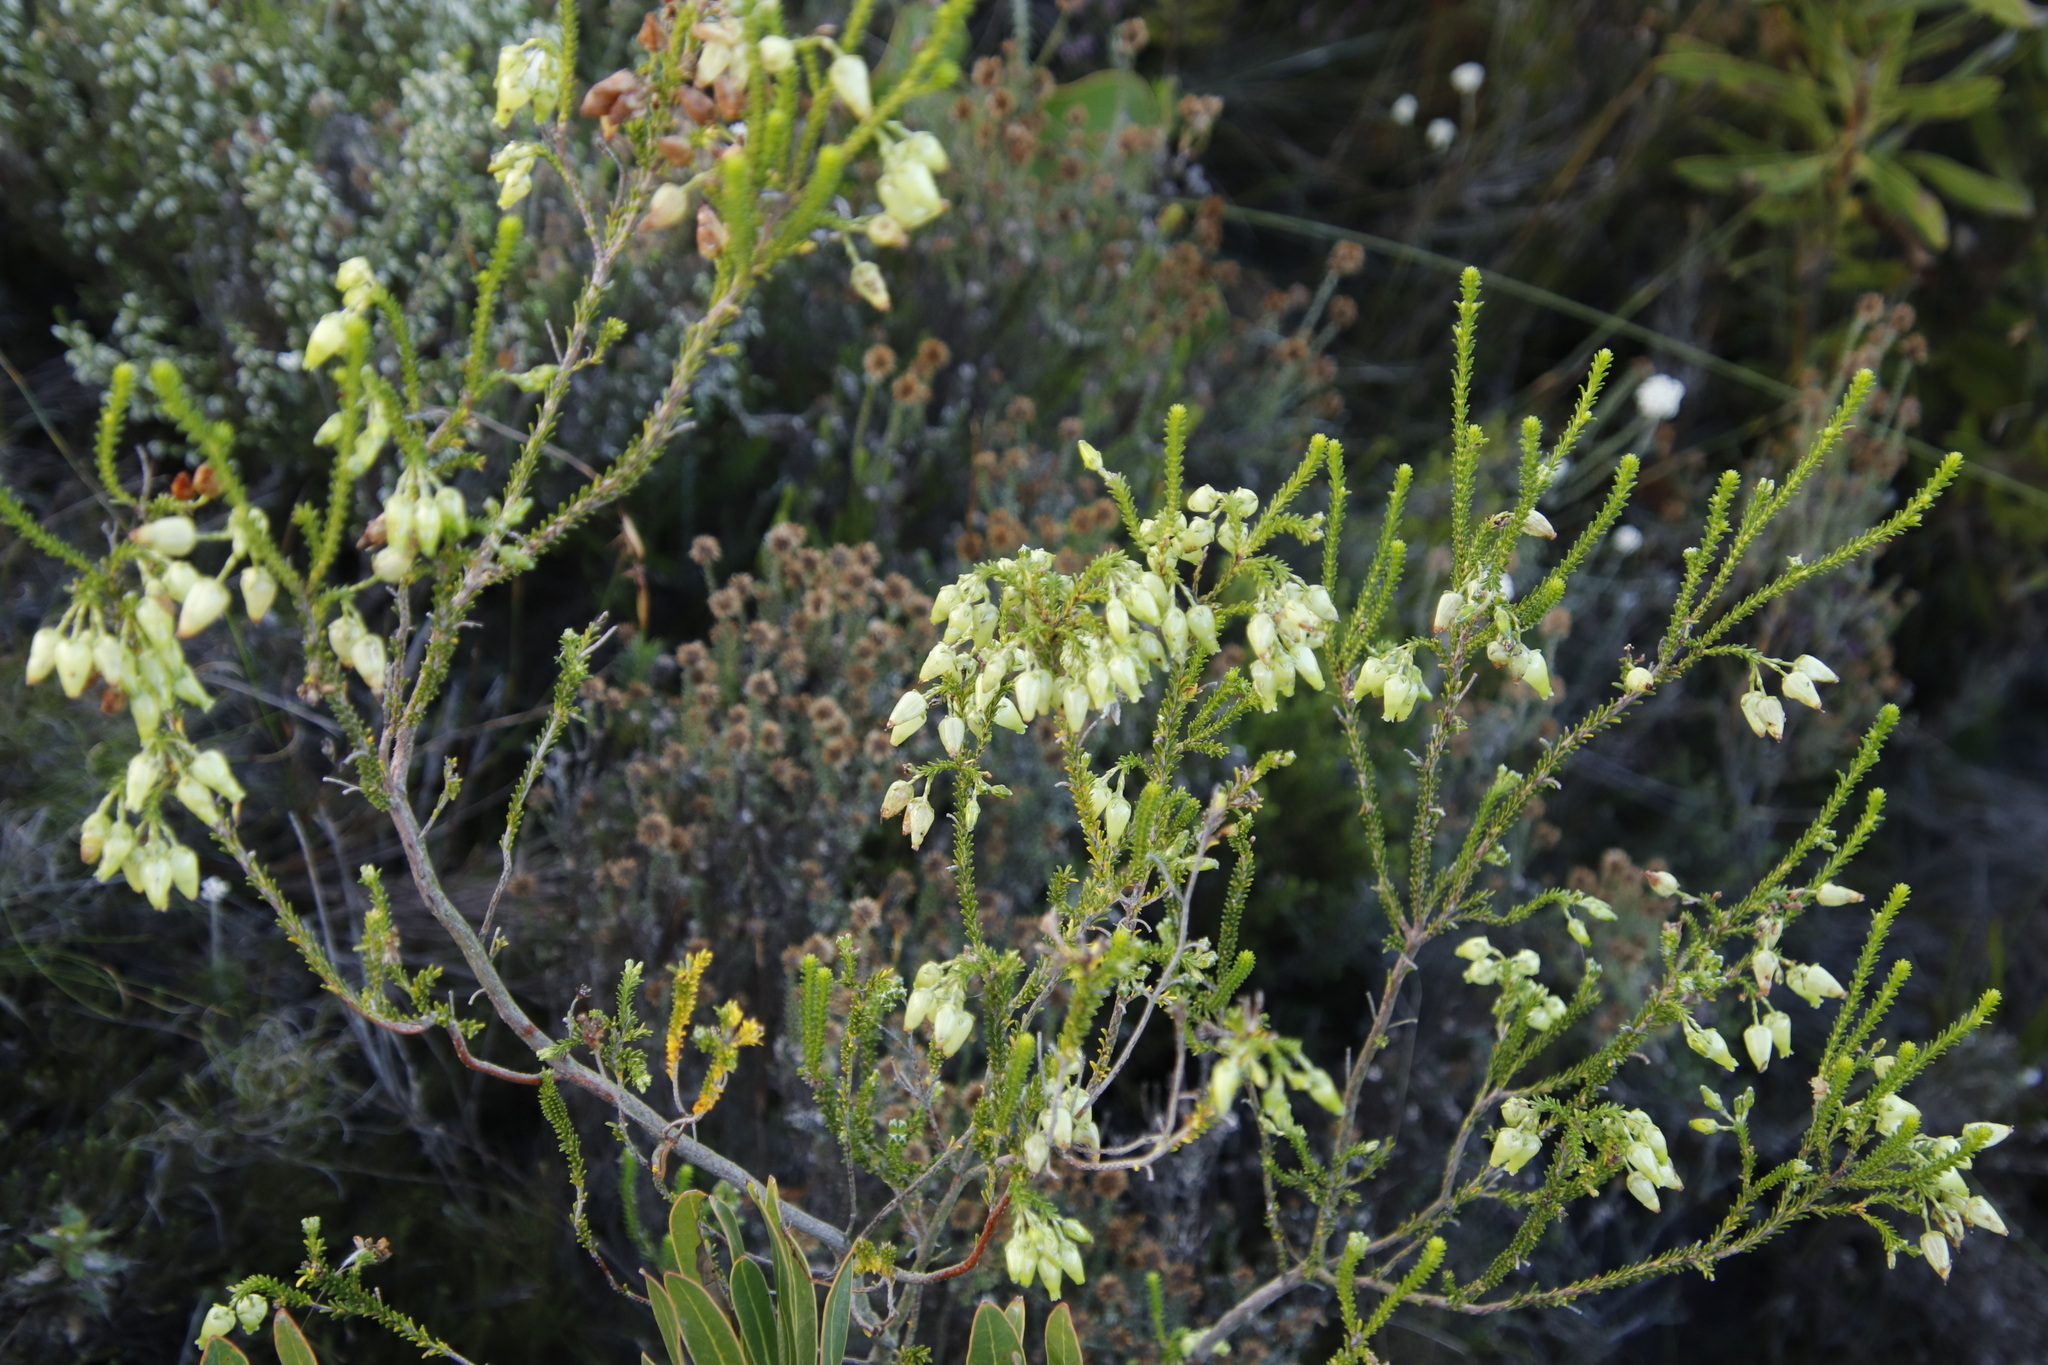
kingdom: Plantae
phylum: Tracheophyta
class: Magnoliopsida
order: Ericales
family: Ericaceae
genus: Erica
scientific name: Erica urna-viridis
